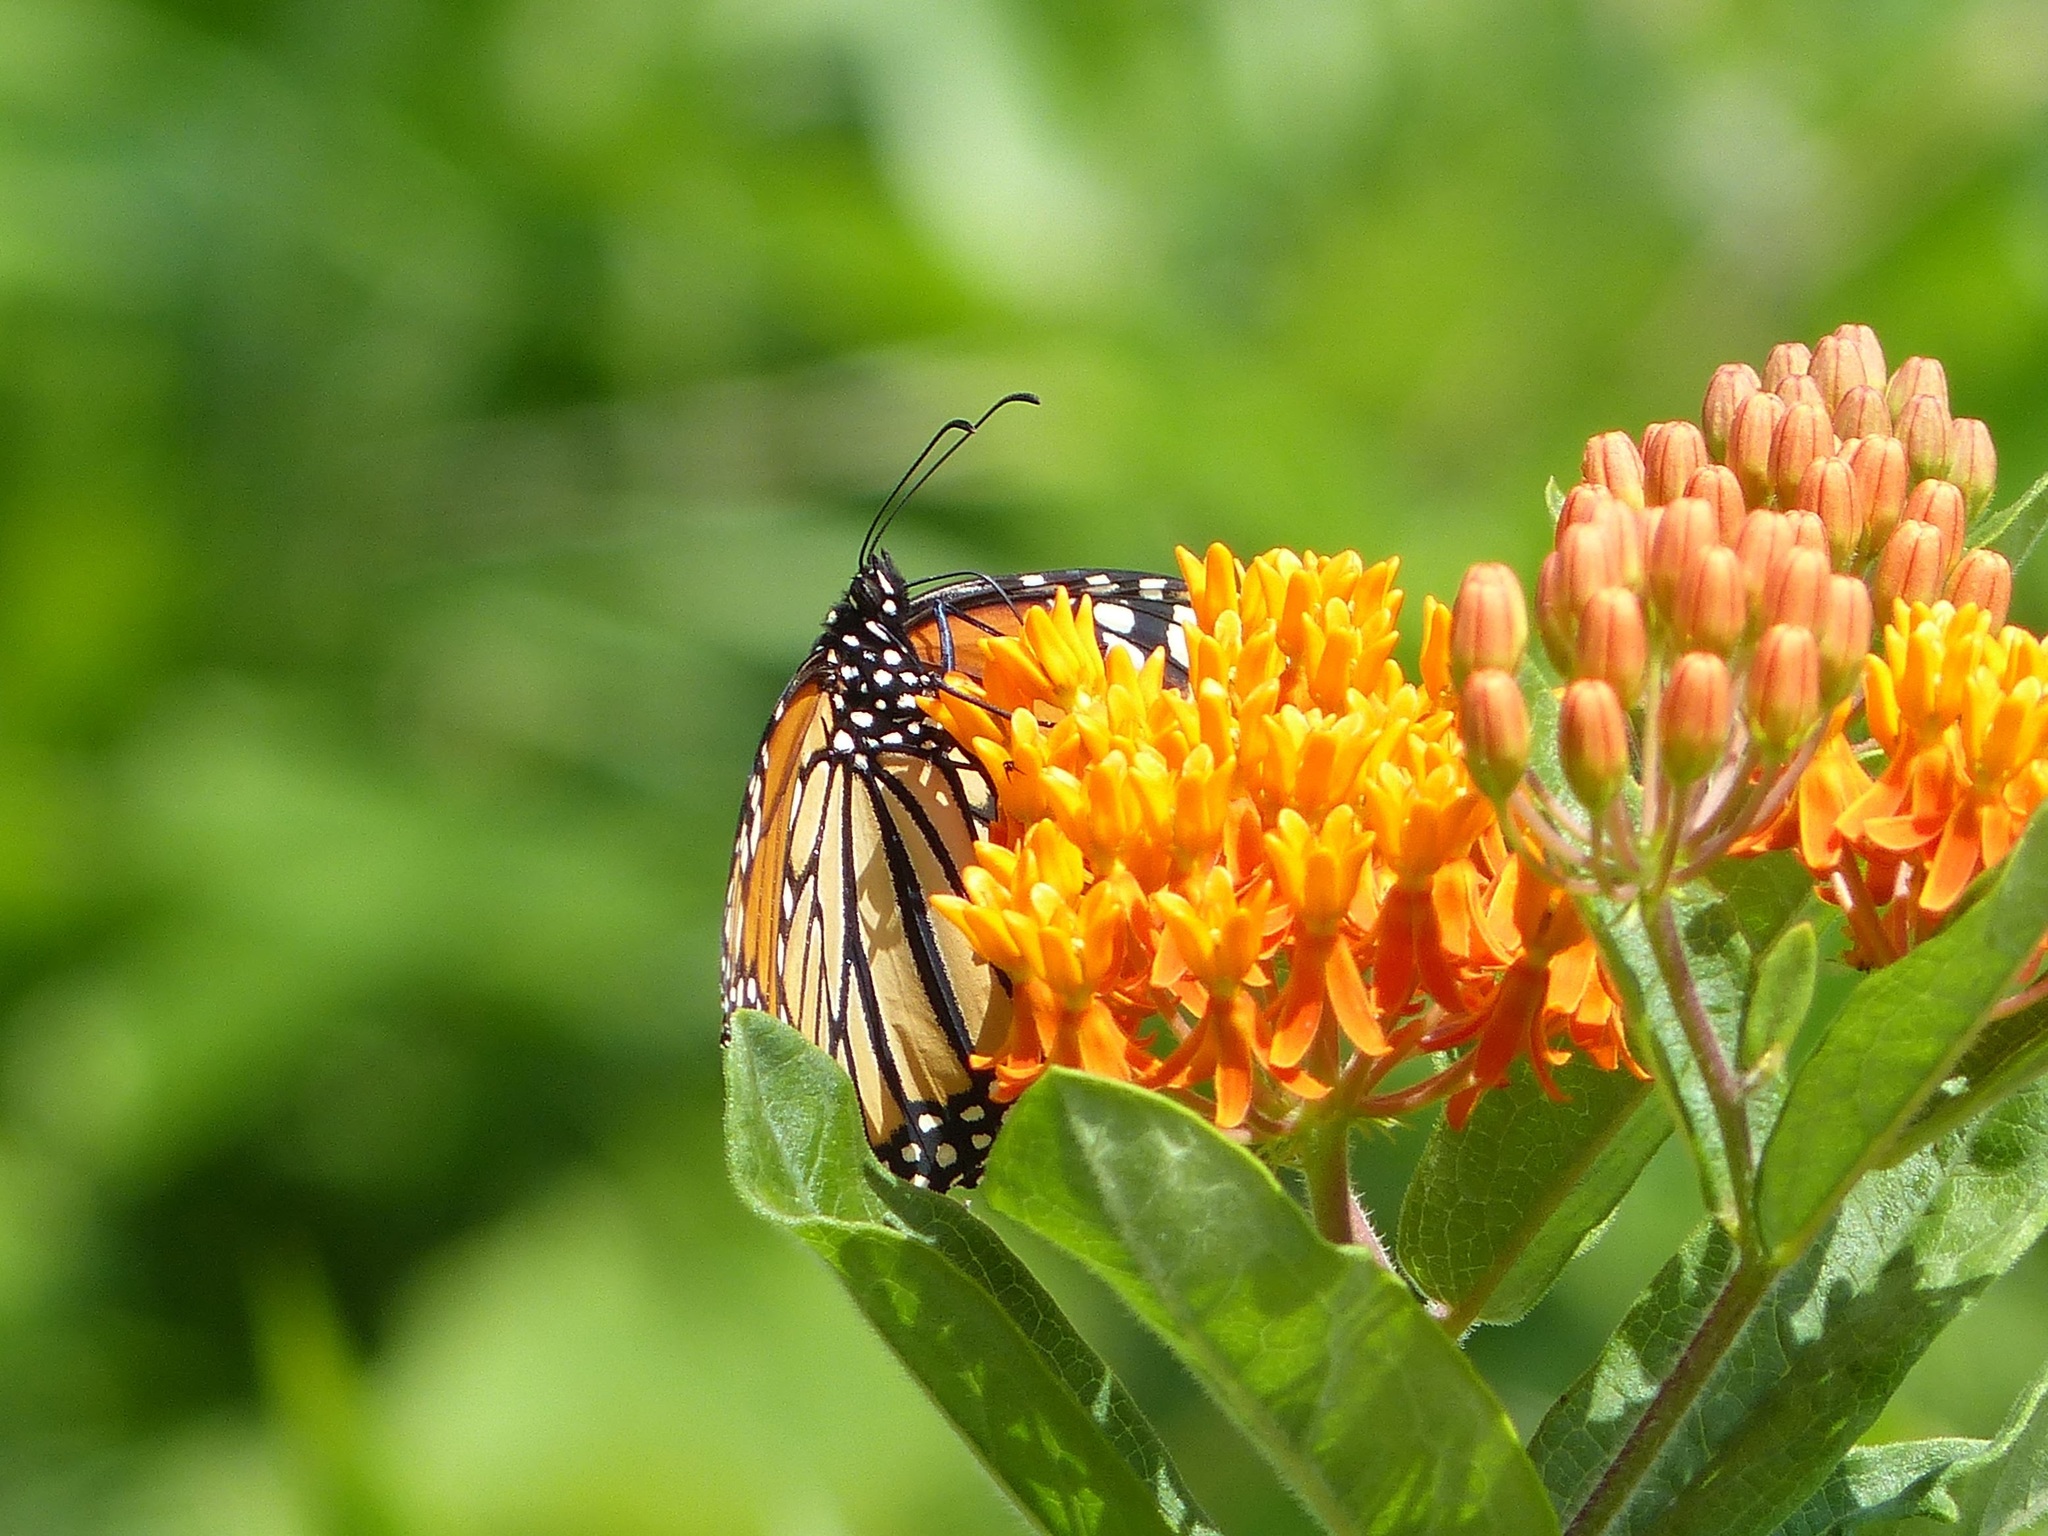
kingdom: Animalia
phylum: Arthropoda
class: Insecta
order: Lepidoptera
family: Nymphalidae
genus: Danaus
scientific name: Danaus plexippus
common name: Monarch
